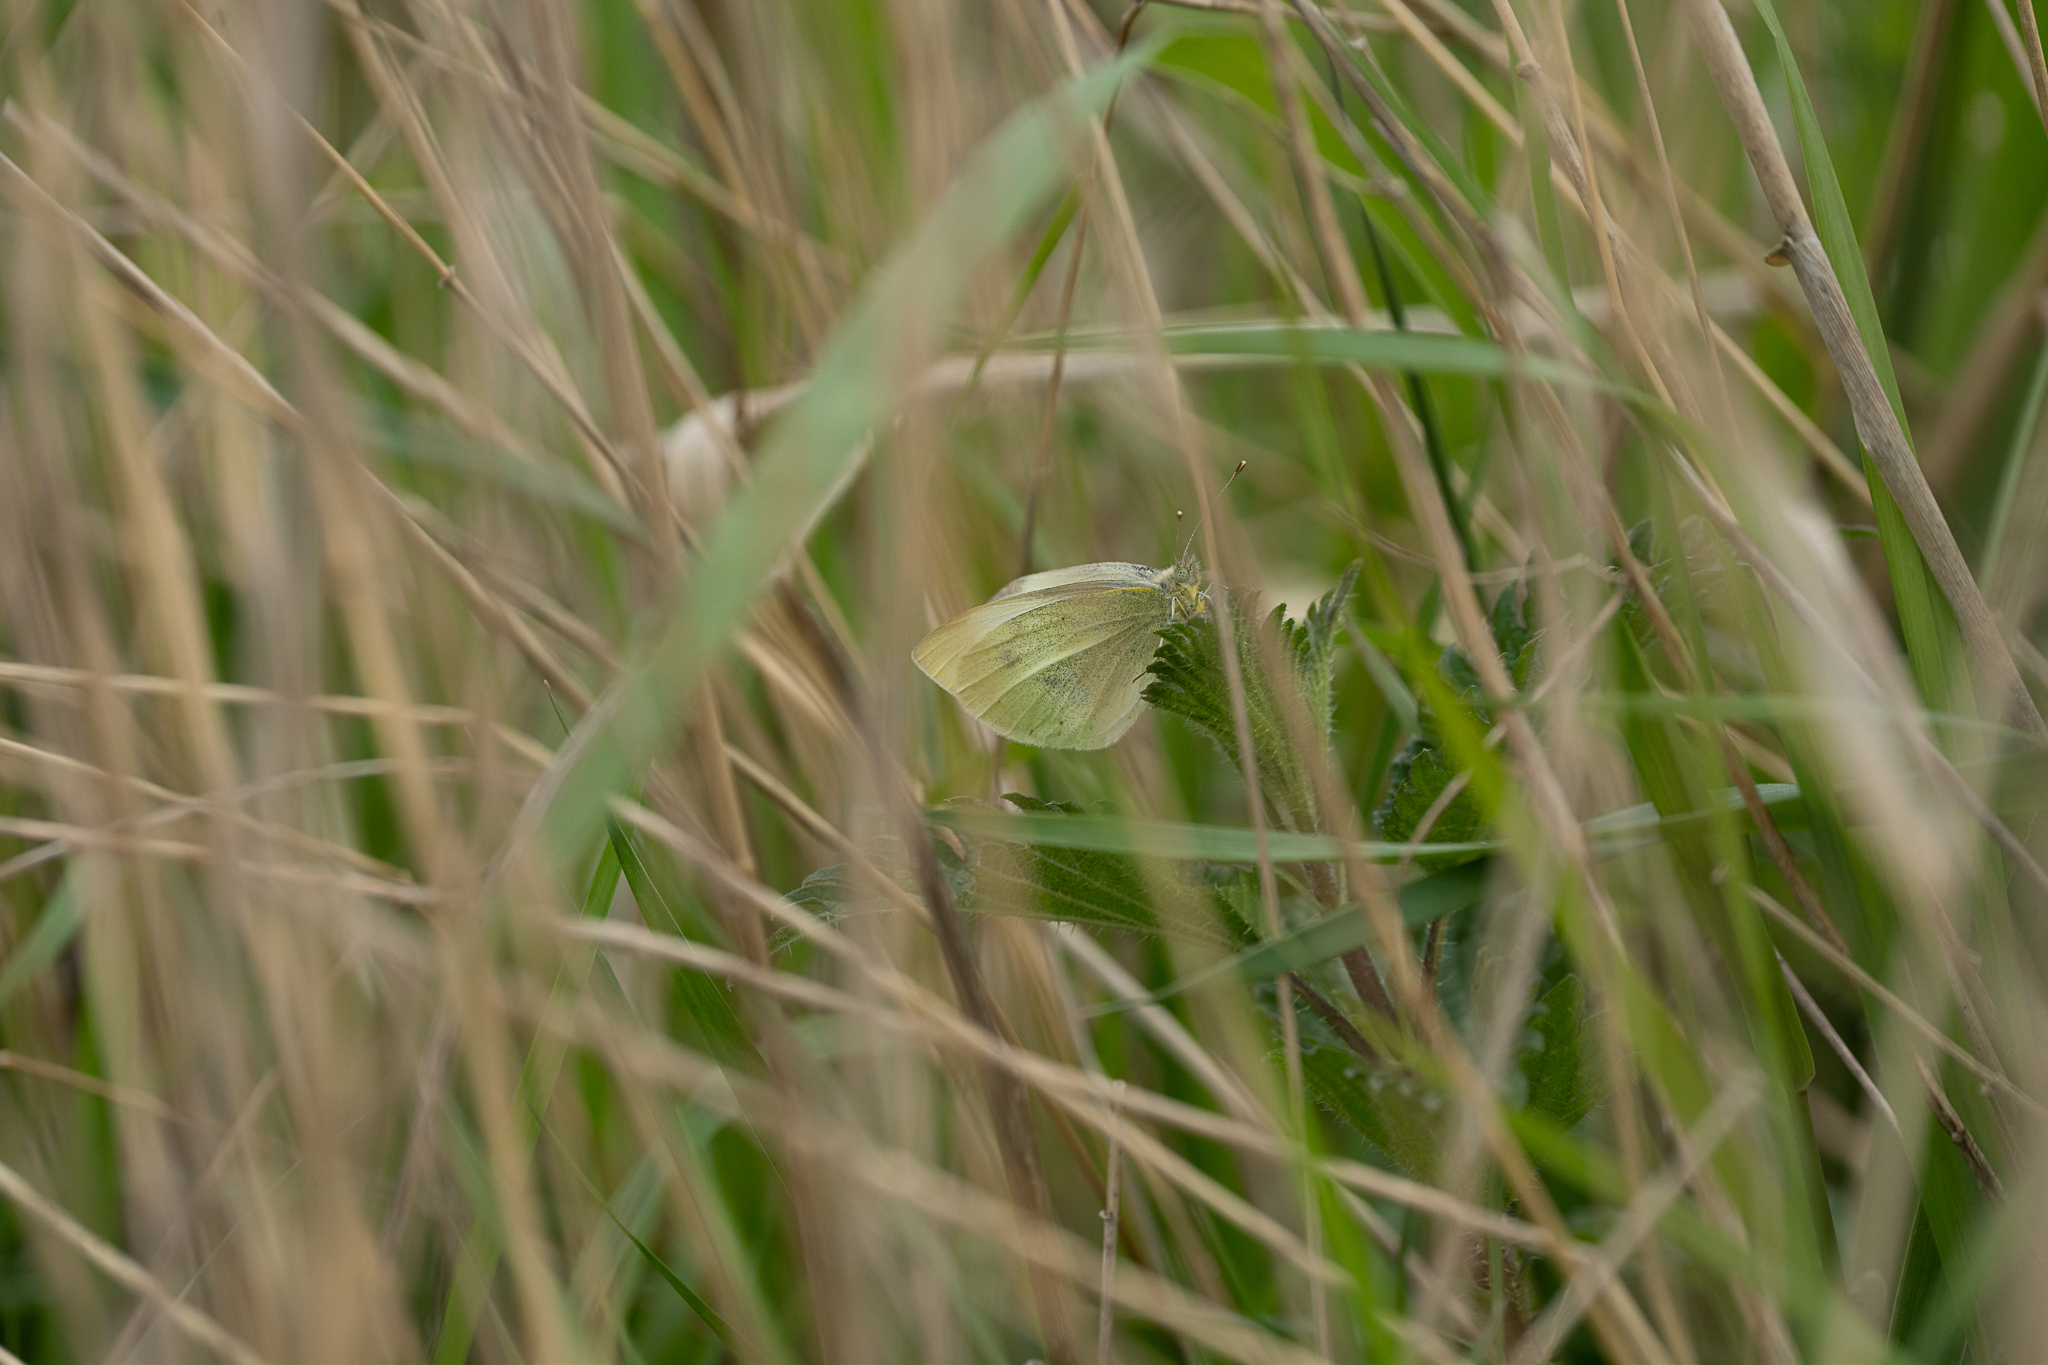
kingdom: Animalia
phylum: Arthropoda
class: Insecta
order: Lepidoptera
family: Pieridae
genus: Pieris
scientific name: Pieris rapae
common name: Small white
